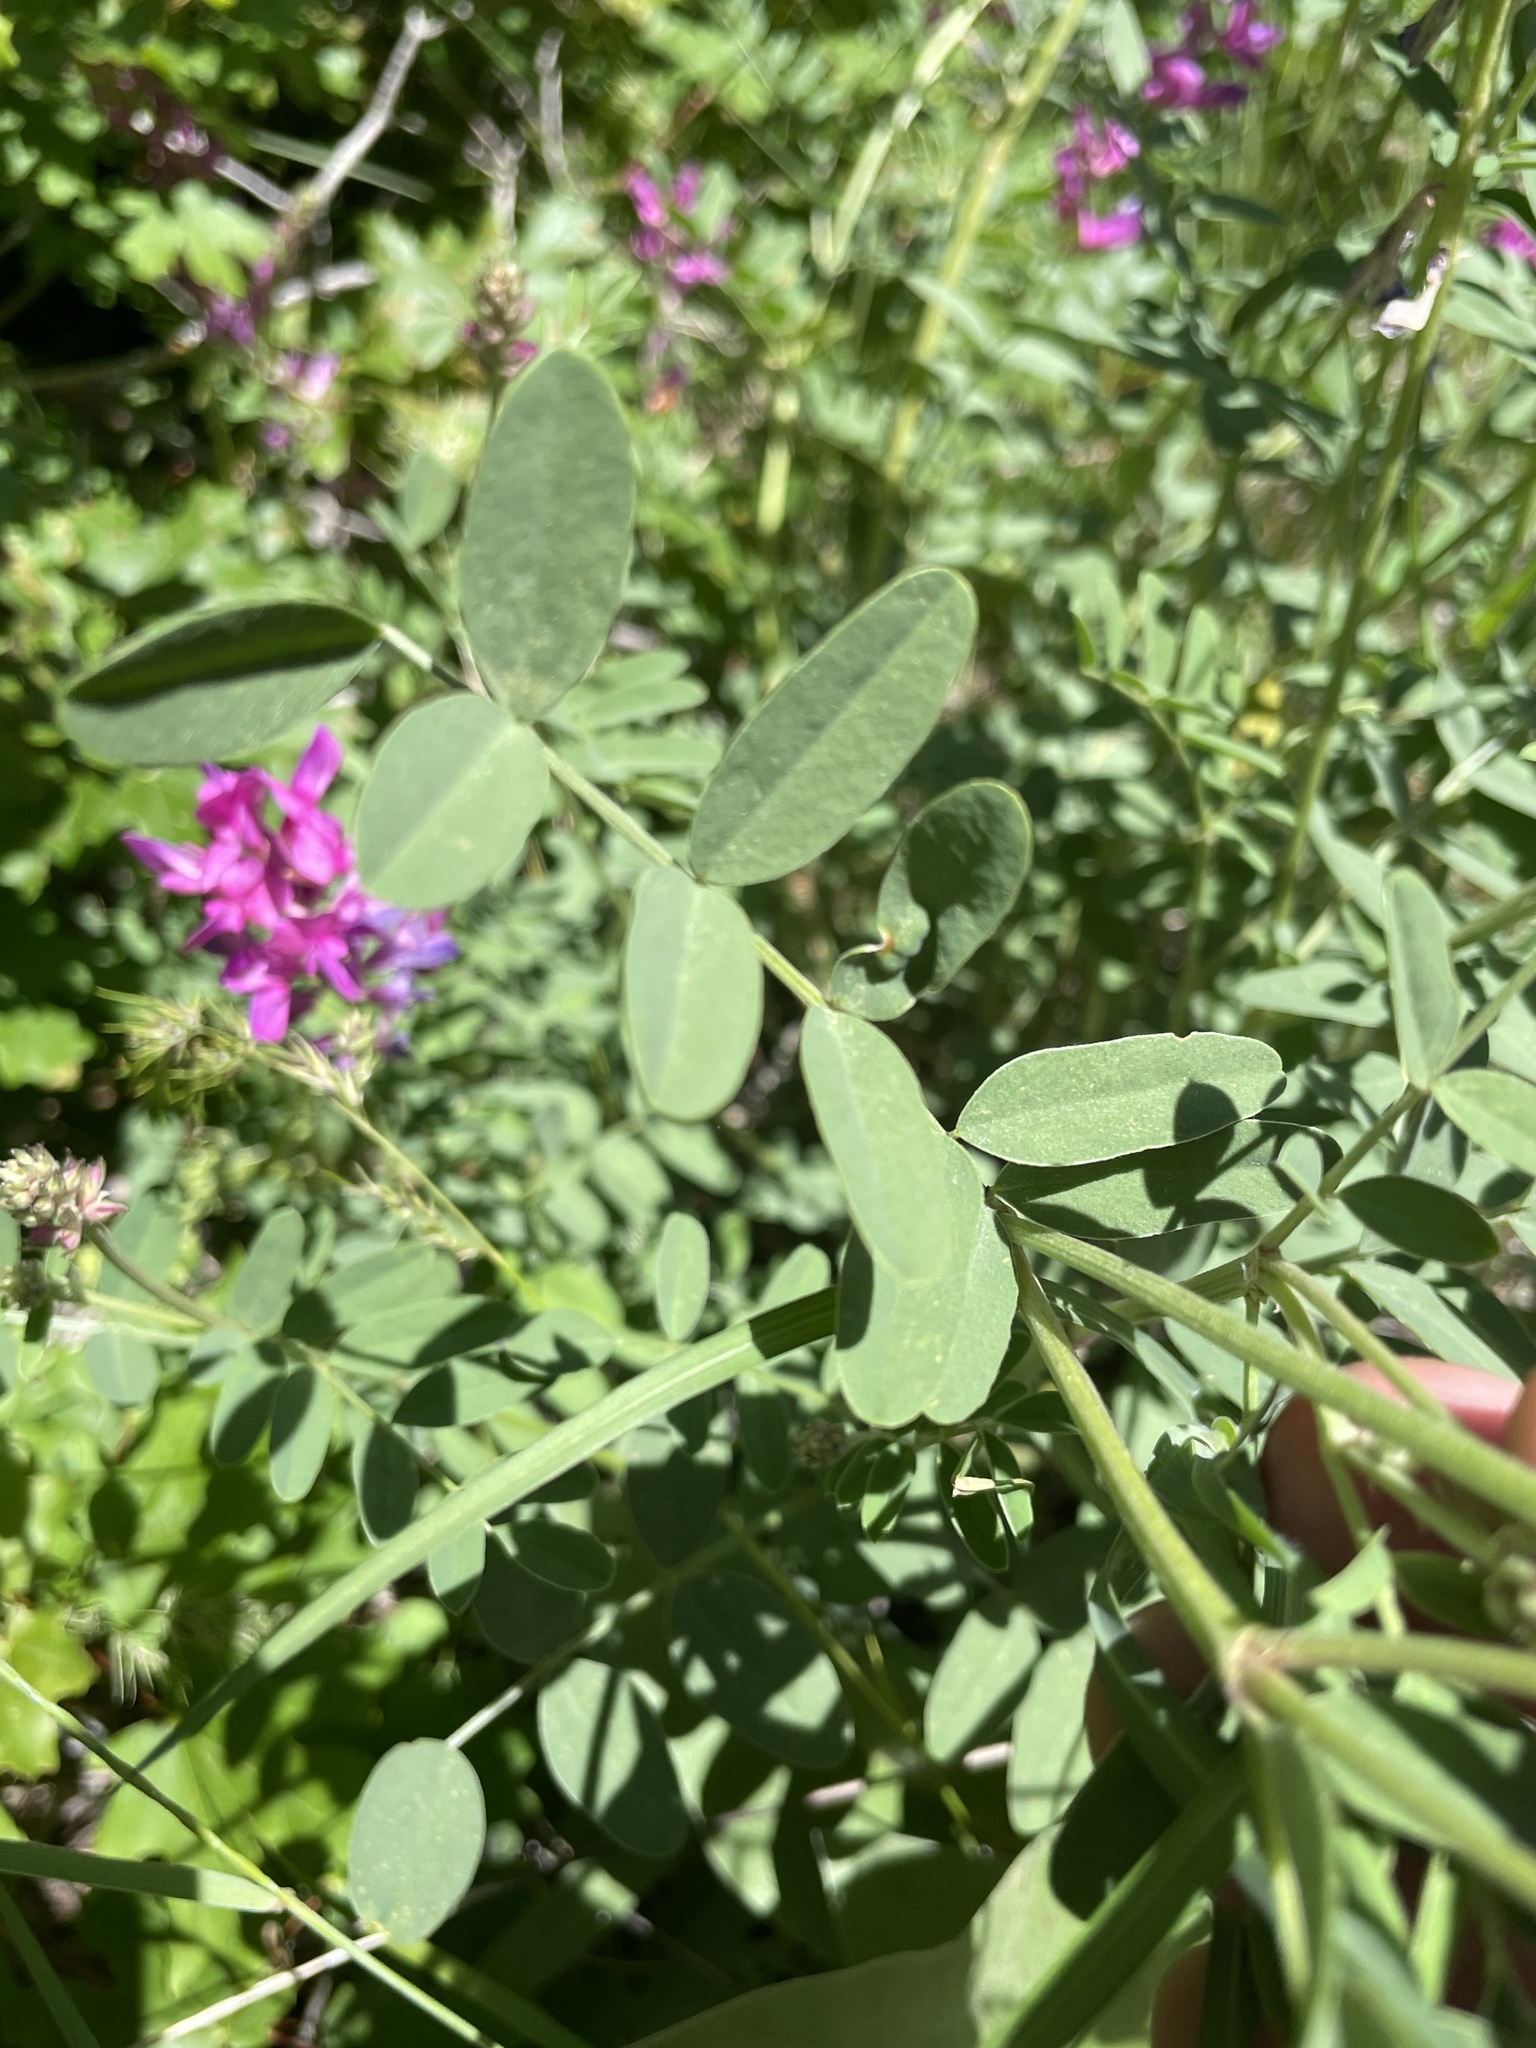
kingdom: Plantae
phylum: Tracheophyta
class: Magnoliopsida
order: Fabales
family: Fabaceae
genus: Hedysarum
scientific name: Hedysarum boreale
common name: Northern sweet-vetch
